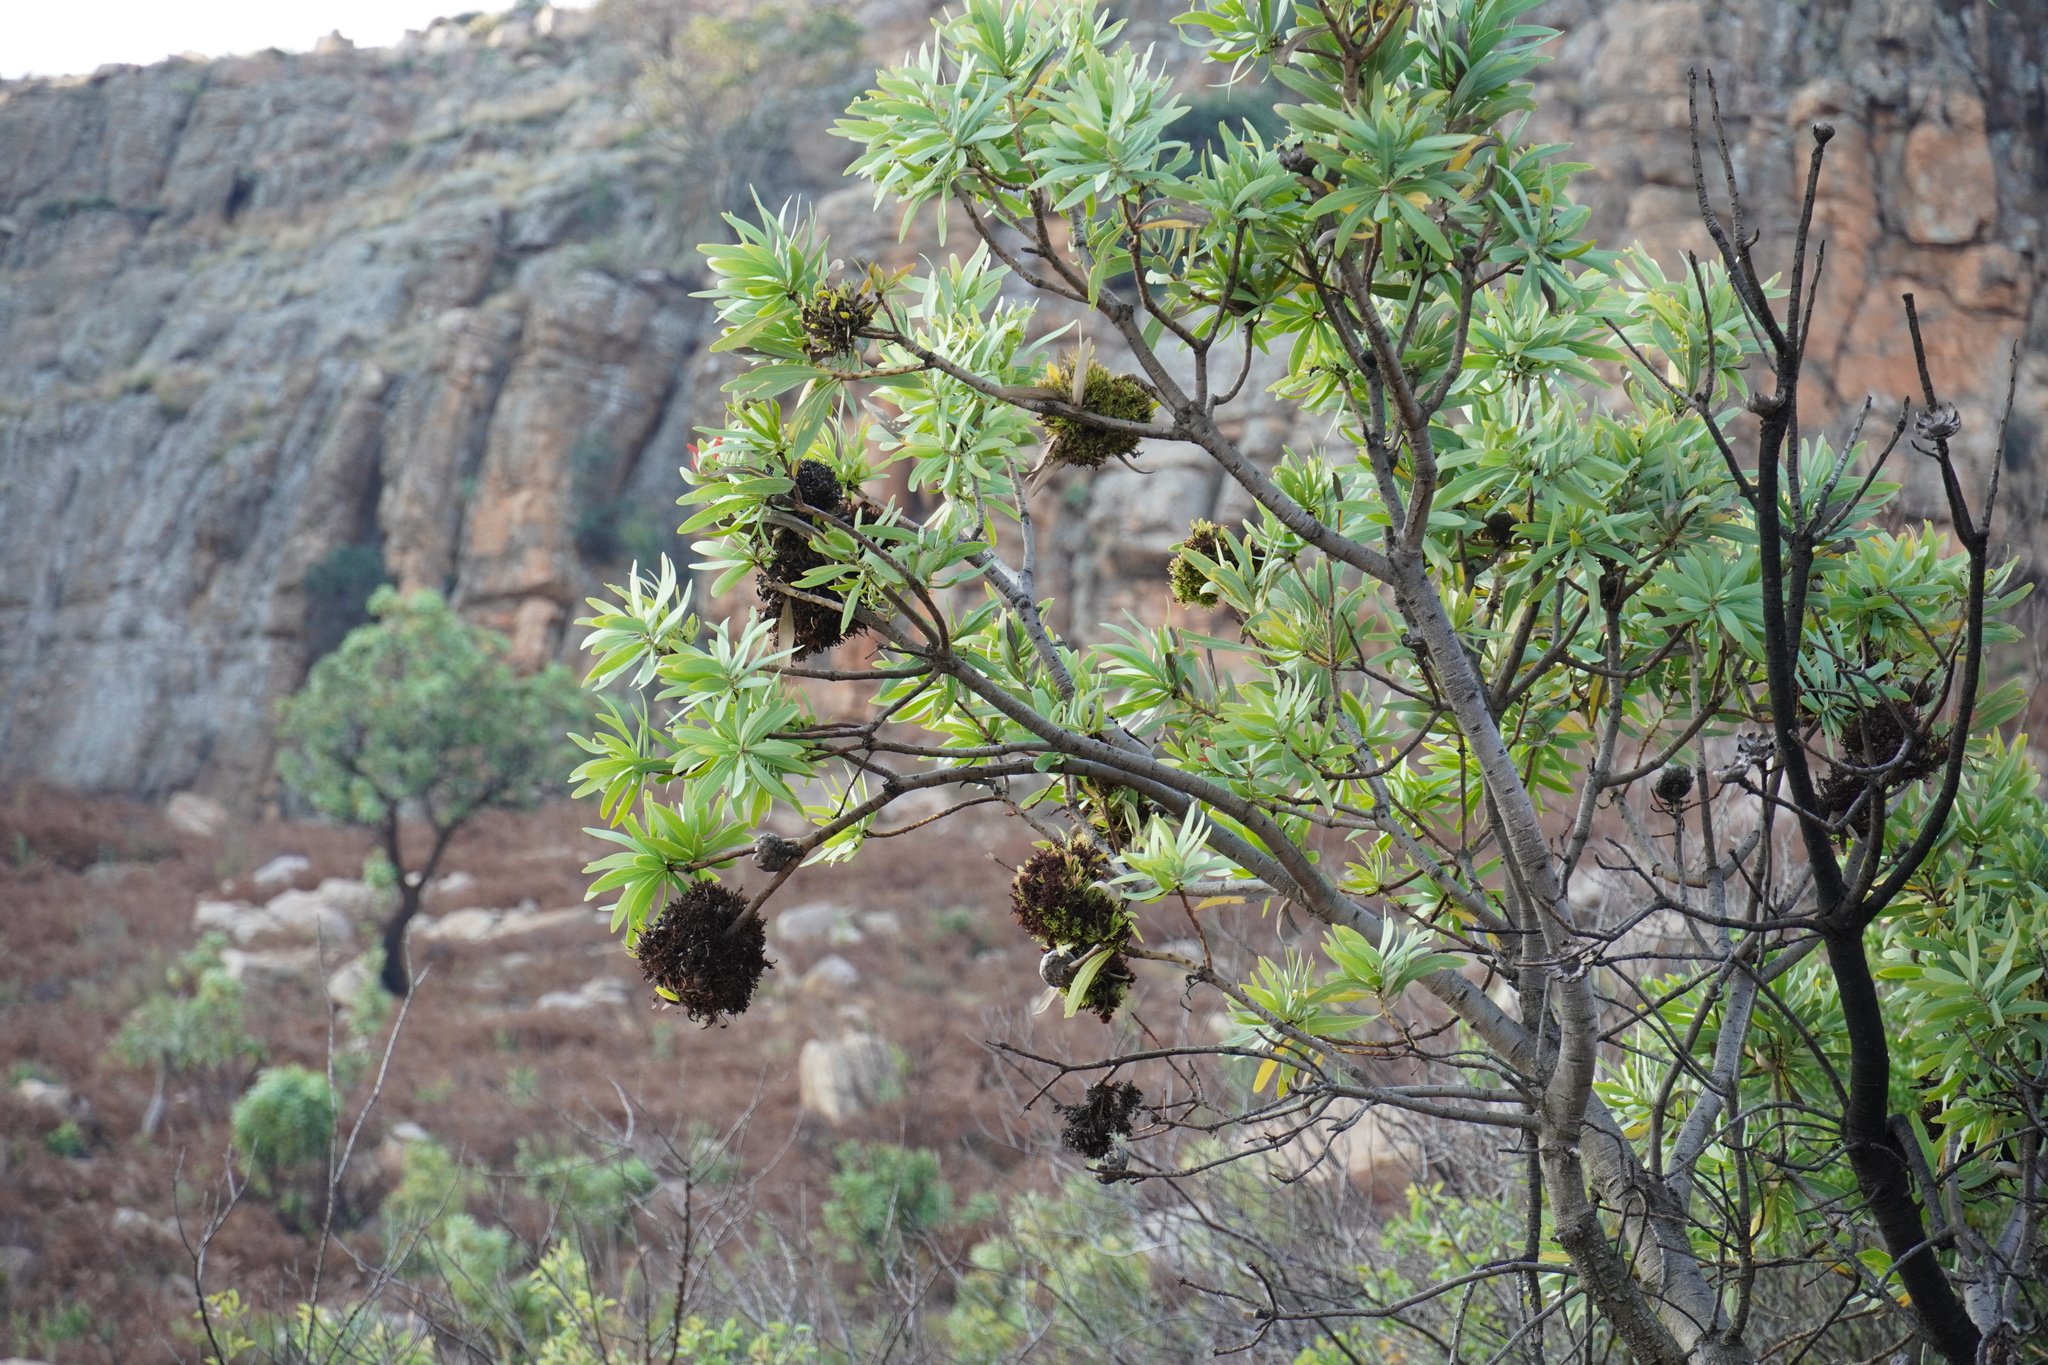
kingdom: Bacteria
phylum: Firmicutes
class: Bacilli
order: Acholeplasmatales
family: Acholeplasmataceae
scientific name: Acholeplasmataceae
